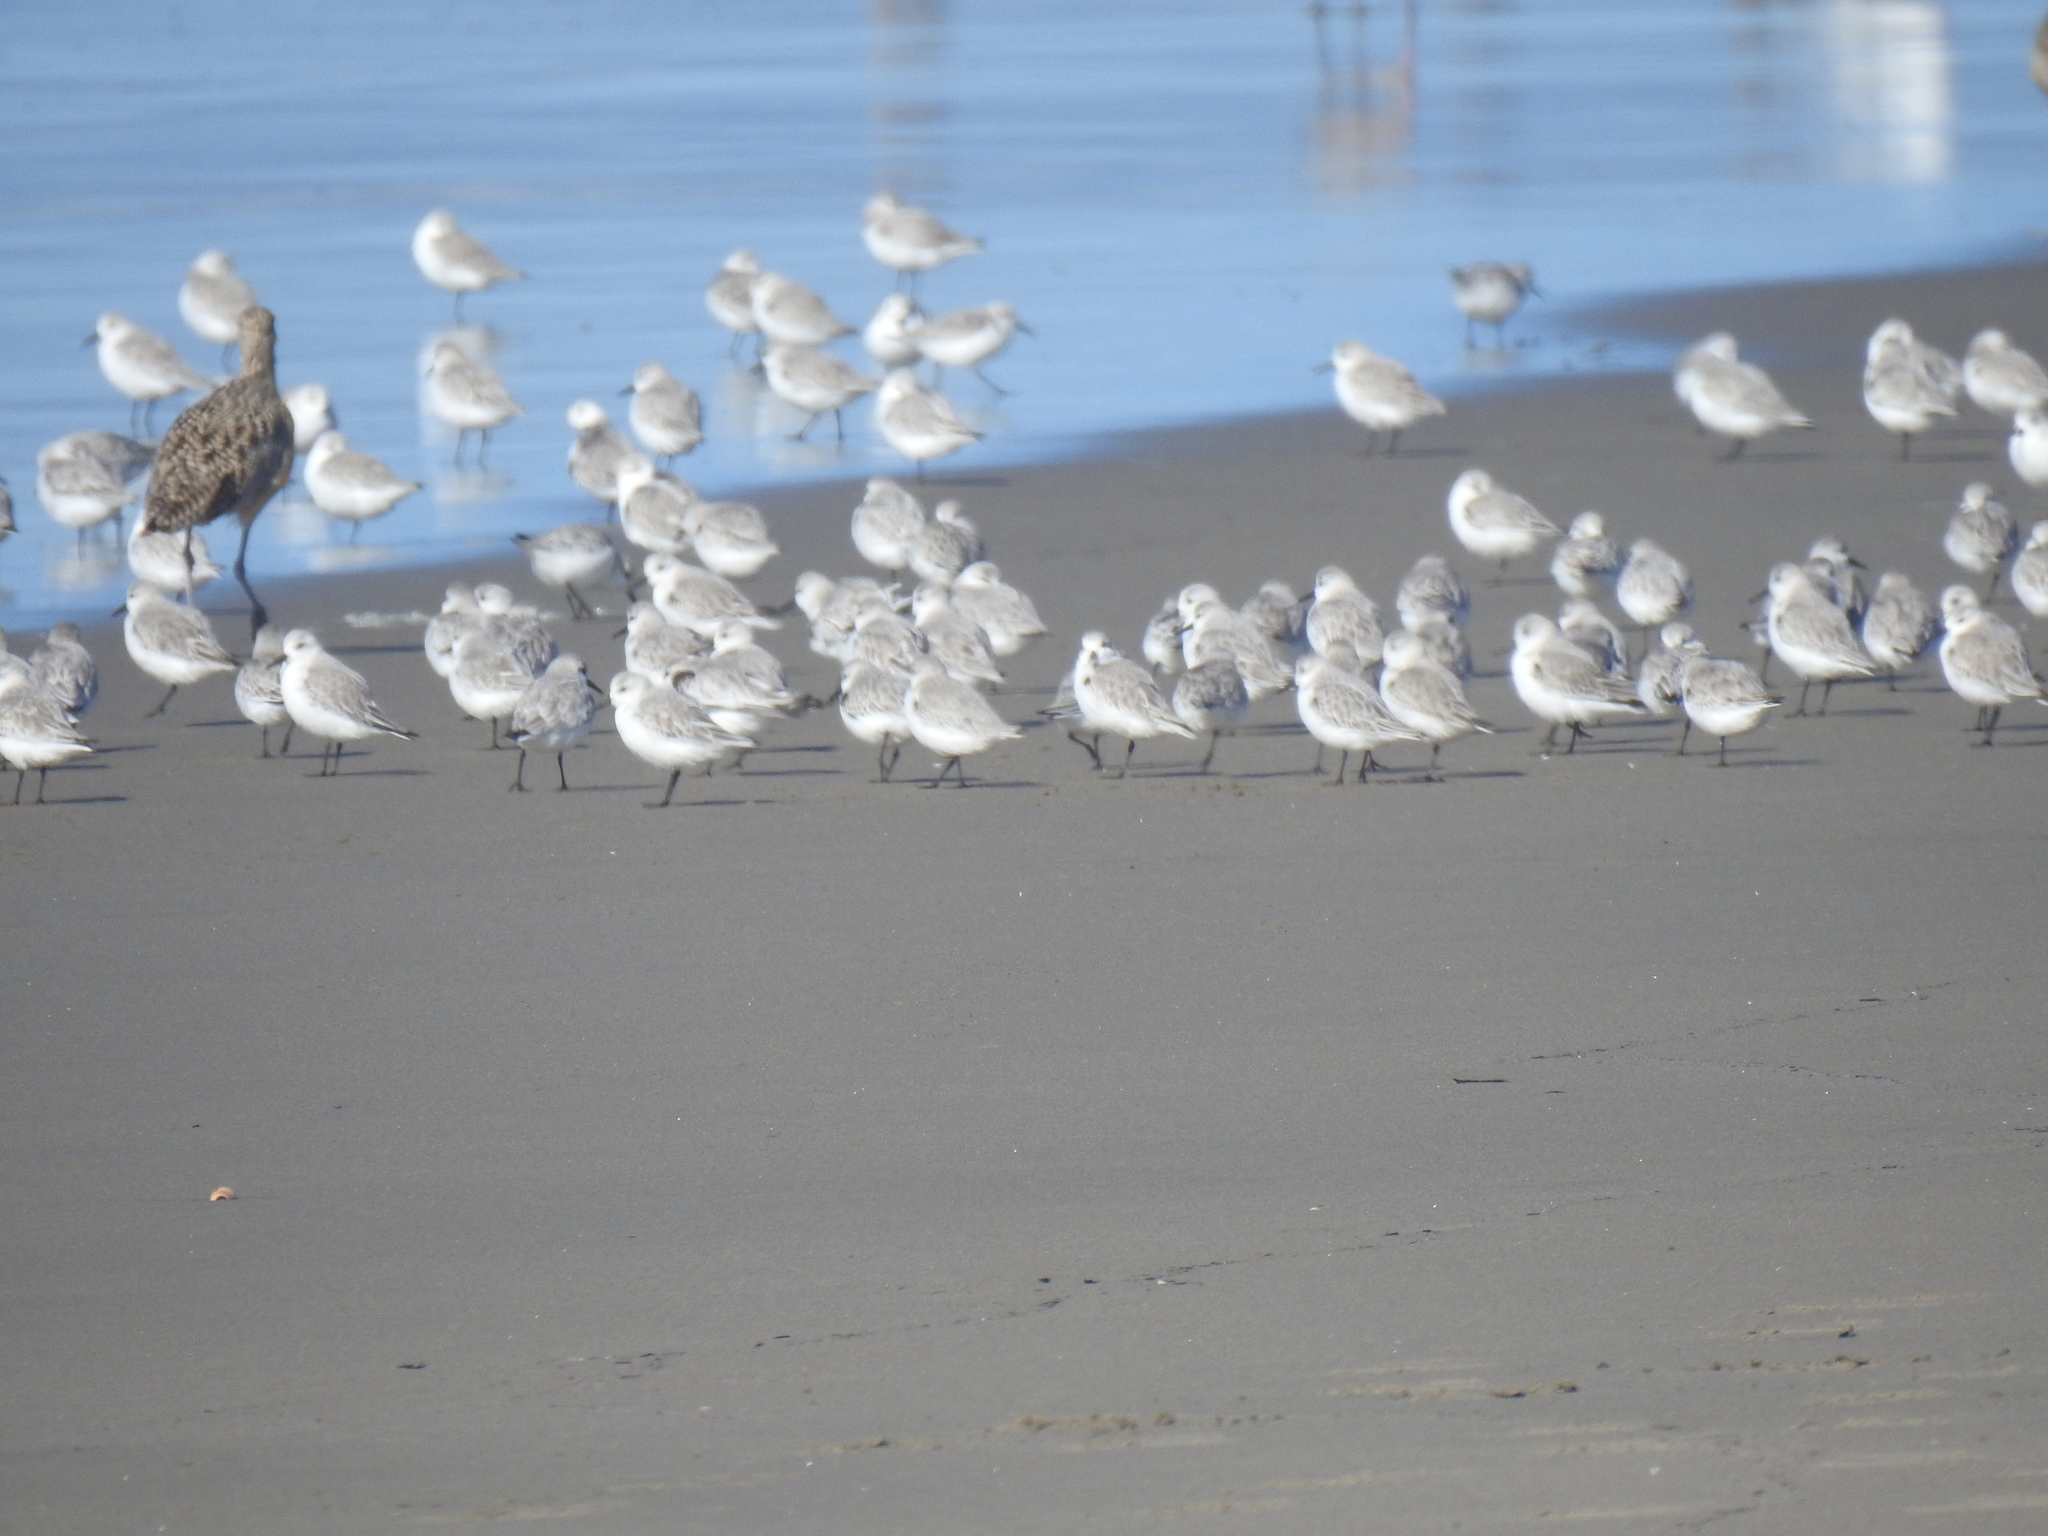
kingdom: Animalia
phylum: Chordata
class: Aves
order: Charadriiformes
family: Scolopacidae
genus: Calidris
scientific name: Calidris alba
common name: Sanderling
